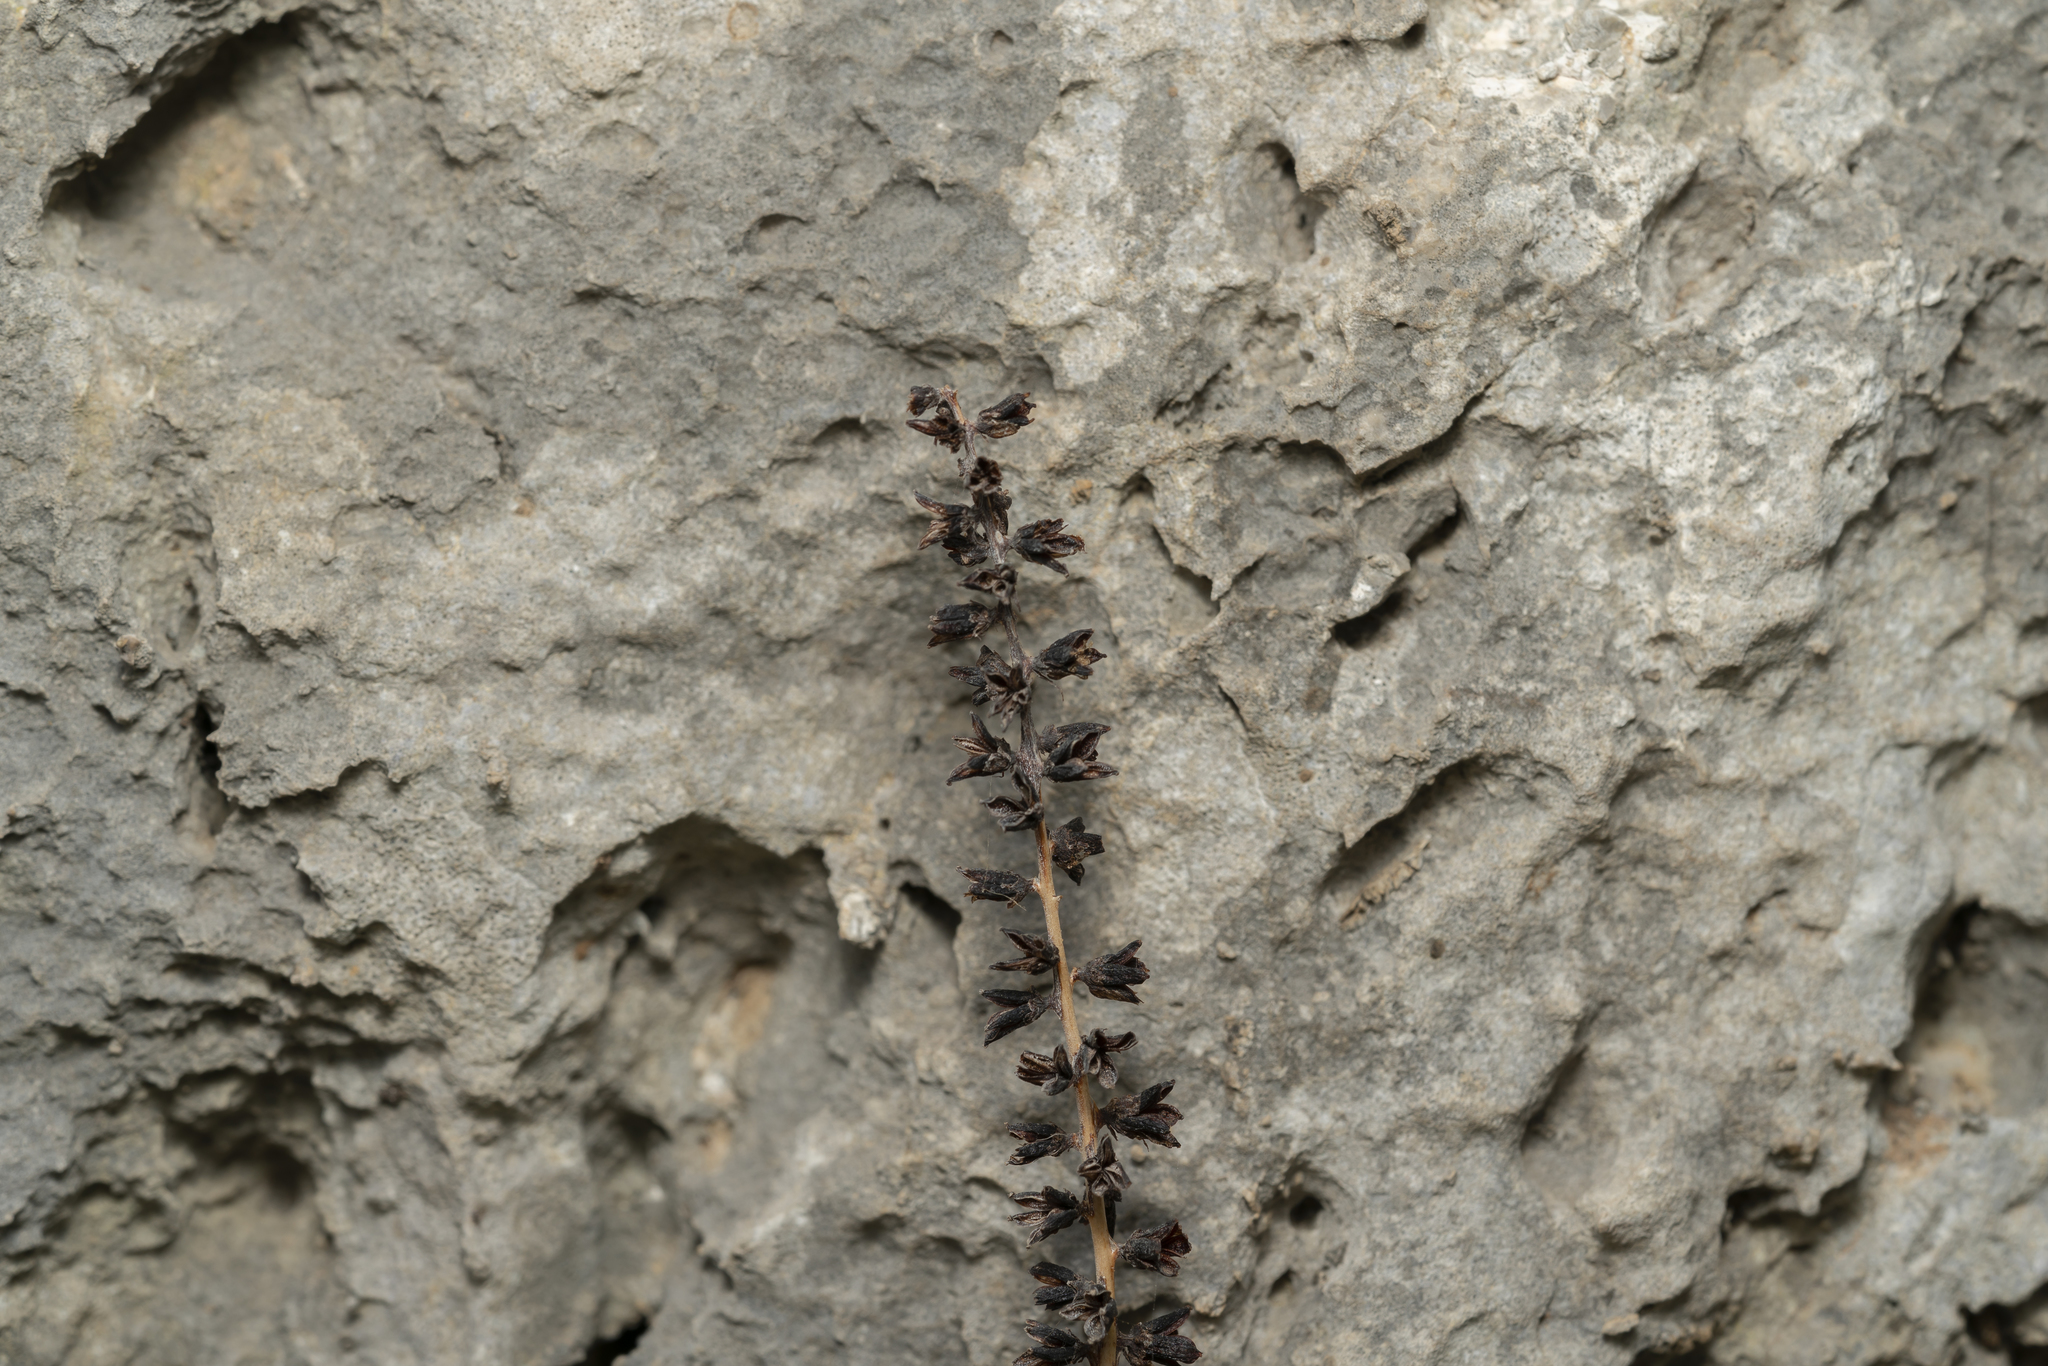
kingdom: Plantae
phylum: Tracheophyta
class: Magnoliopsida
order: Saxifragales
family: Crassulaceae
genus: Umbilicus
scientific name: Umbilicus
